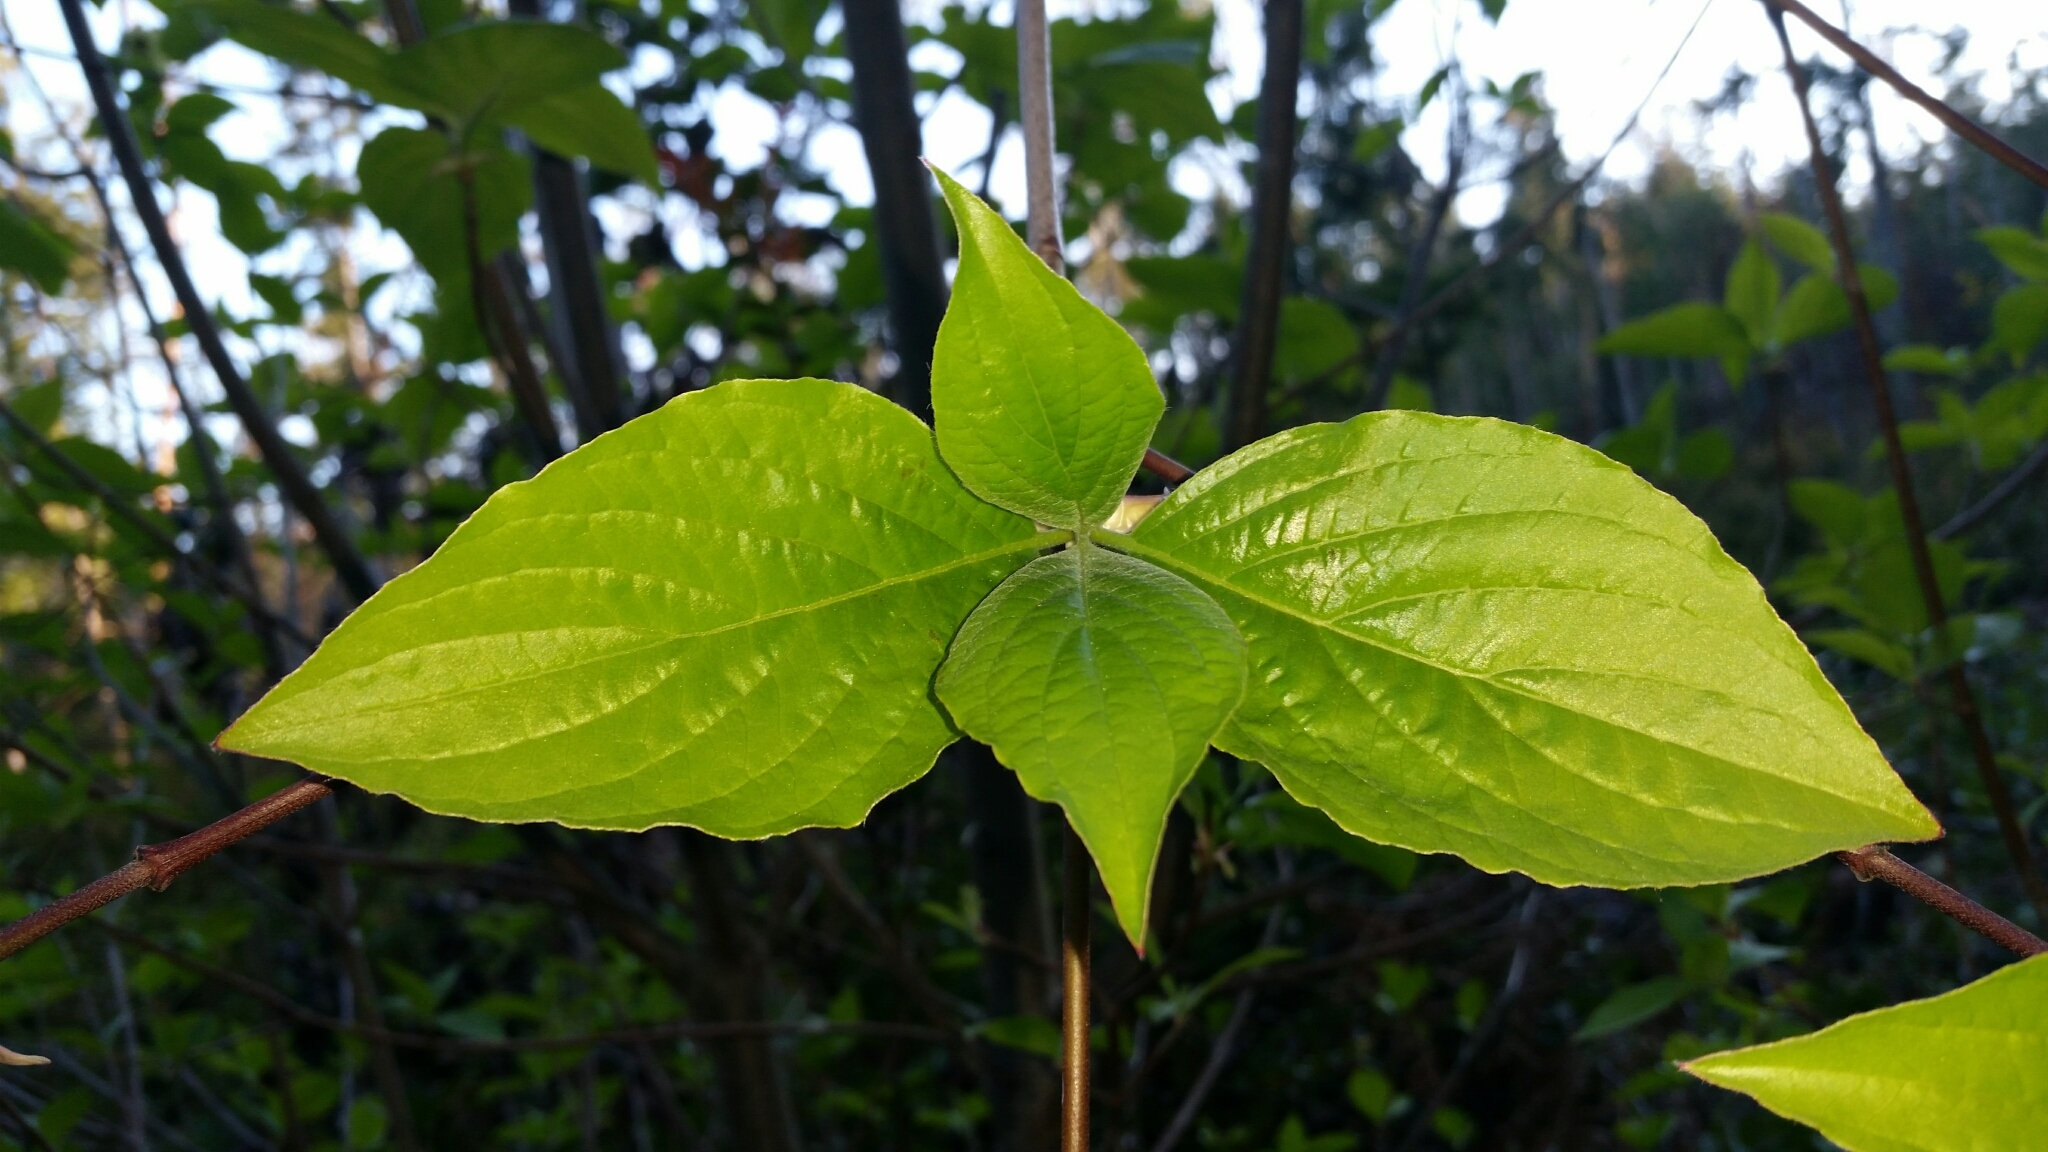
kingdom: Plantae
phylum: Tracheophyta
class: Magnoliopsida
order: Cornales
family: Cornaceae
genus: Cornus
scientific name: Cornus nuttallii
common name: Pacific dogwood
